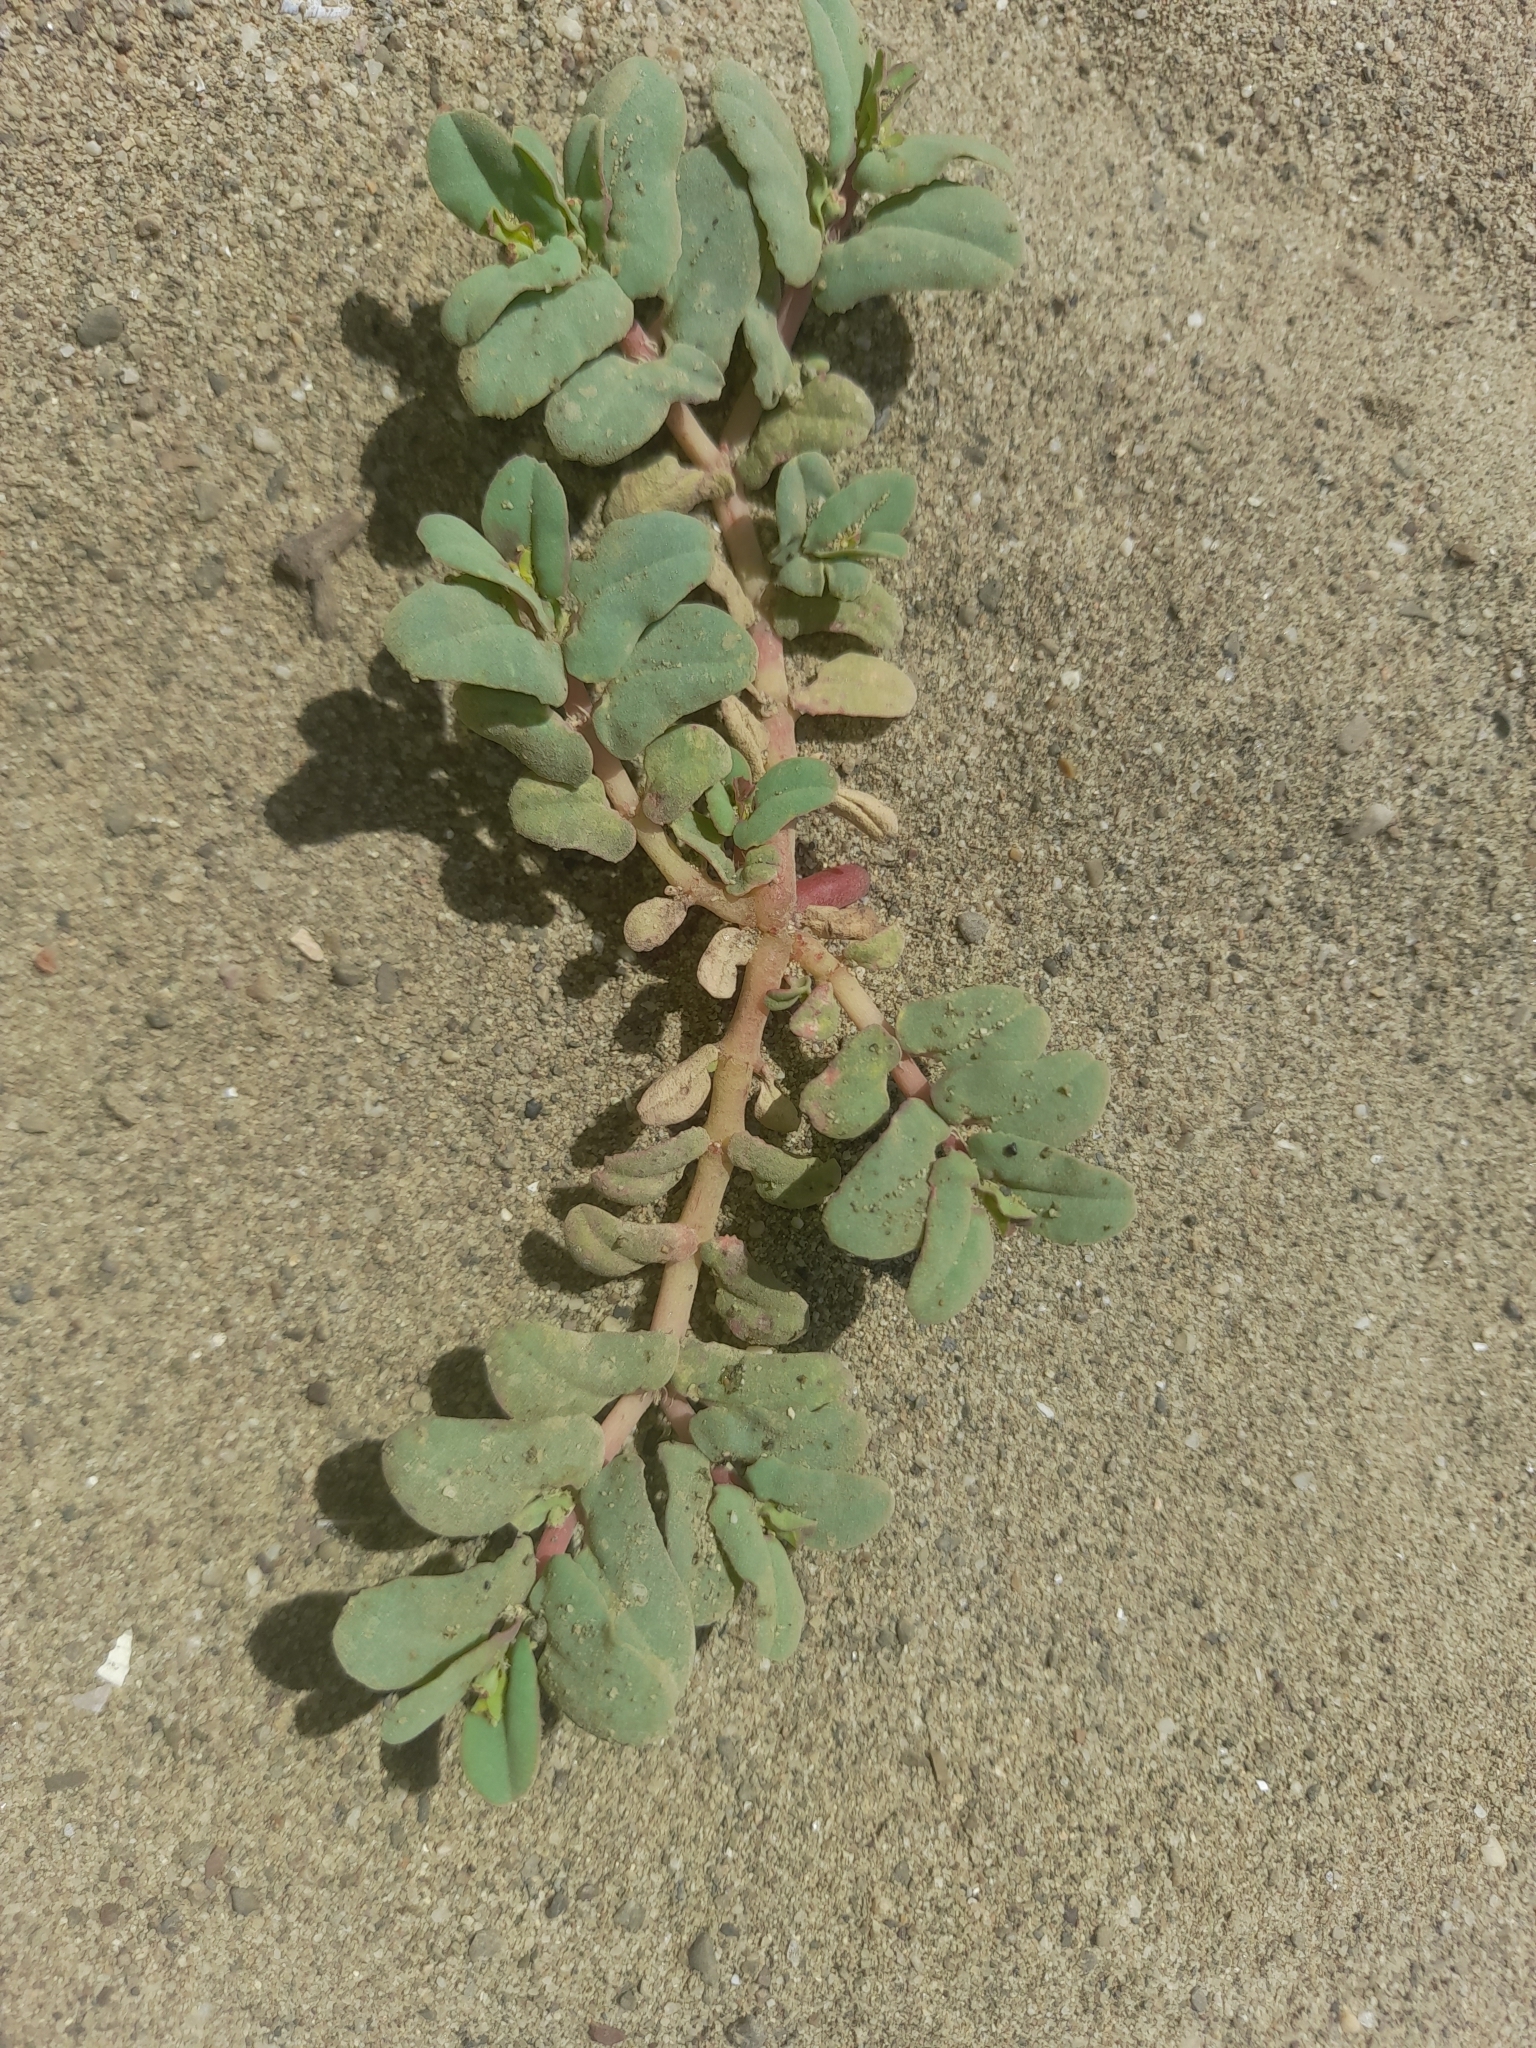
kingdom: Plantae
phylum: Tracheophyta
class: Magnoliopsida
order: Malpighiales
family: Euphorbiaceae
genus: Euphorbia
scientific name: Euphorbia peplis
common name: Purple spurge
